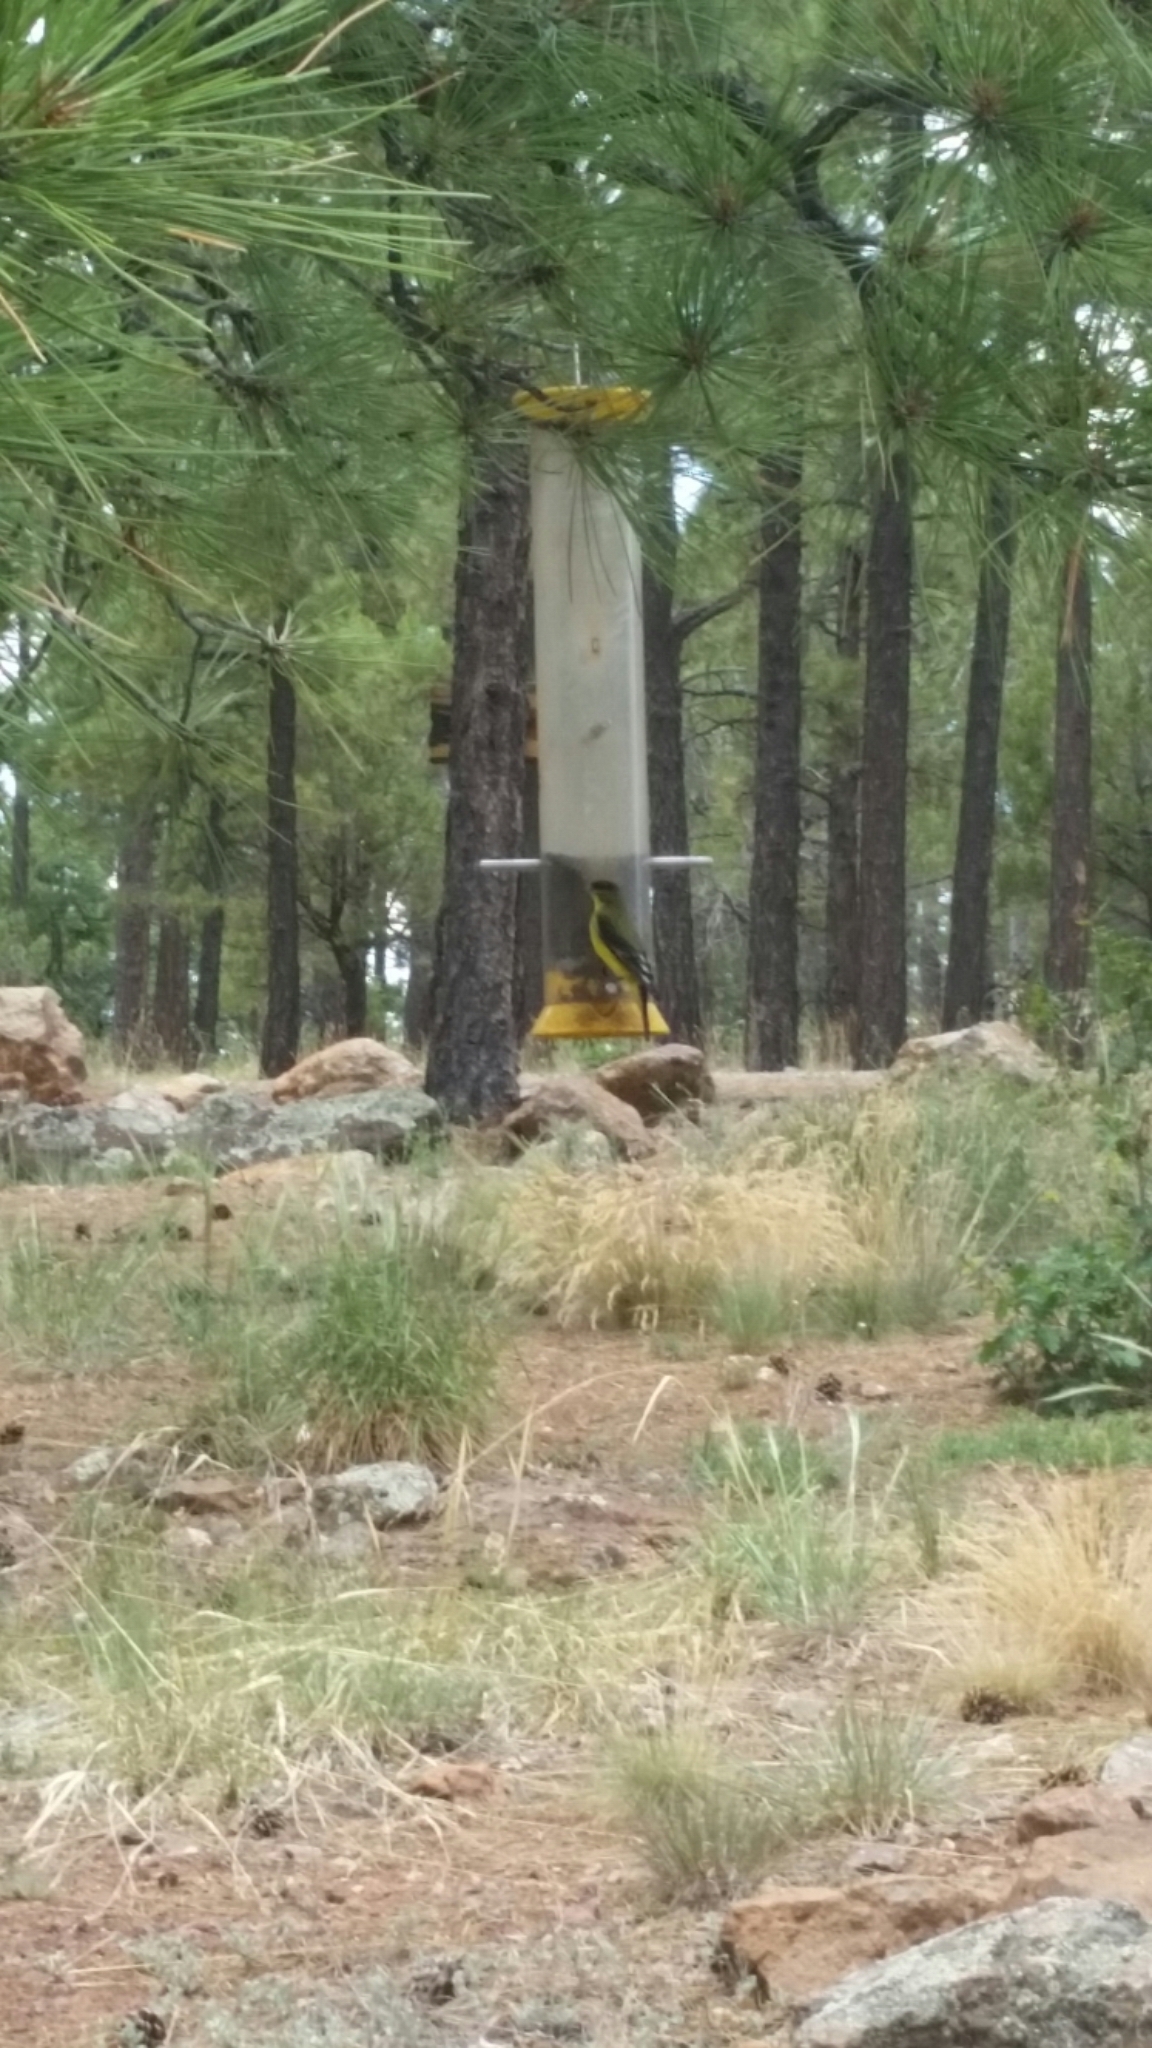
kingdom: Animalia
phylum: Chordata
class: Aves
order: Passeriformes
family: Fringillidae
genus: Spinus
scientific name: Spinus psaltria
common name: Lesser goldfinch
